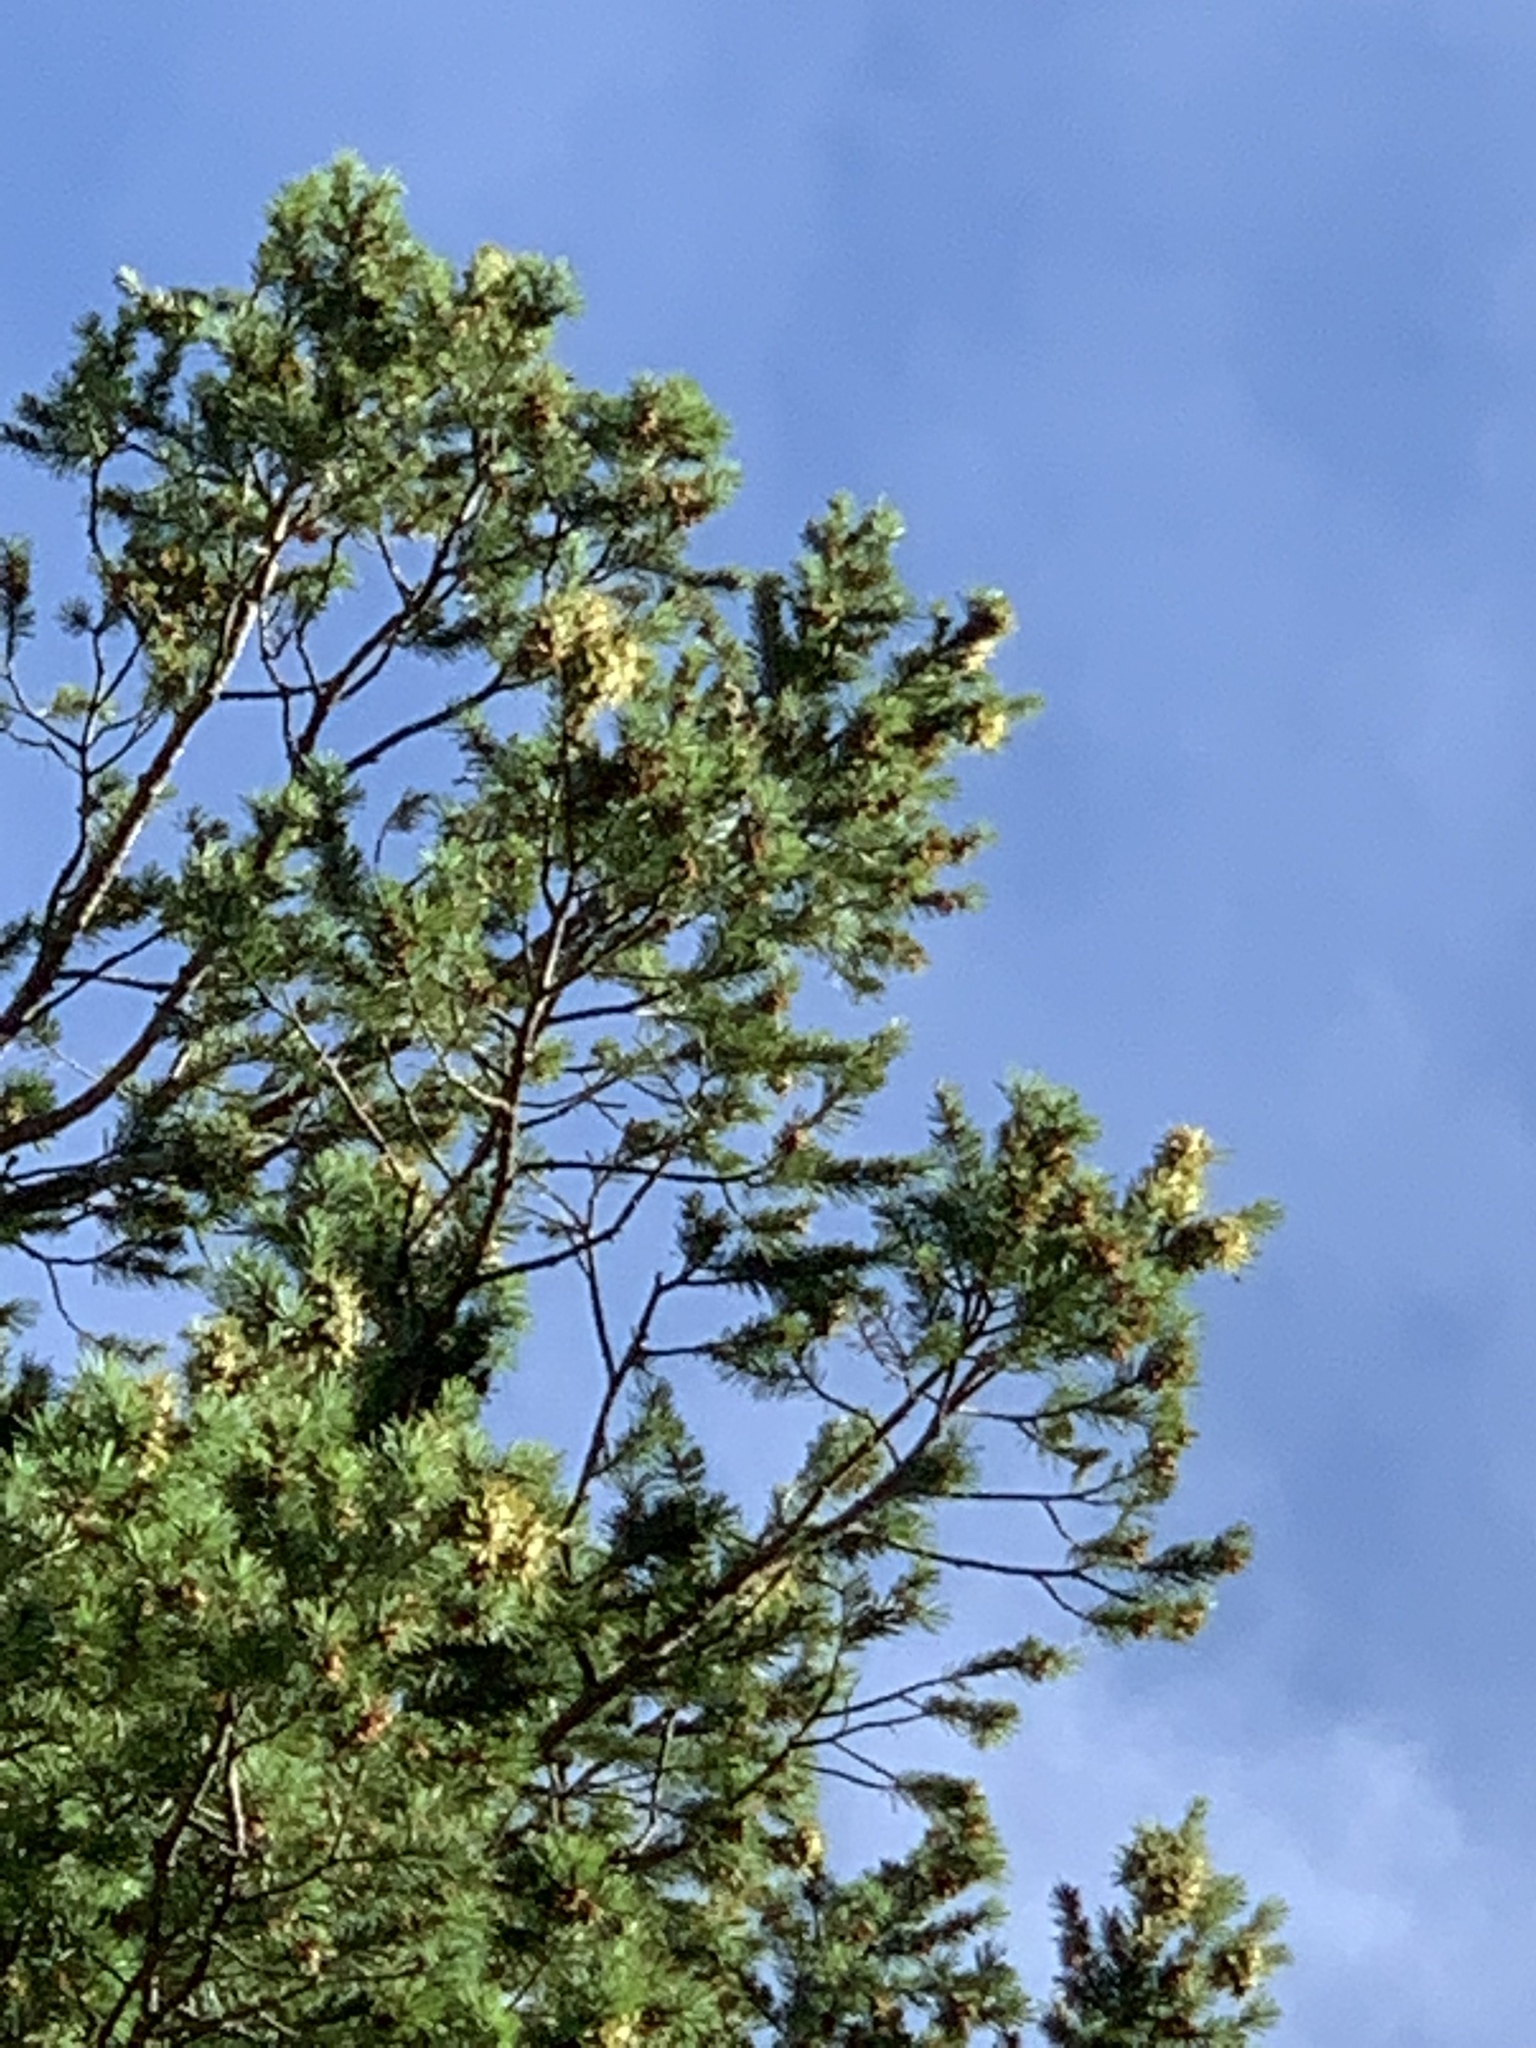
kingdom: Plantae
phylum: Tracheophyta
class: Pinopsida
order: Pinales
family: Pinaceae
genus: Pseudotsuga
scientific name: Pseudotsuga menziesii
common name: Douglas fir
